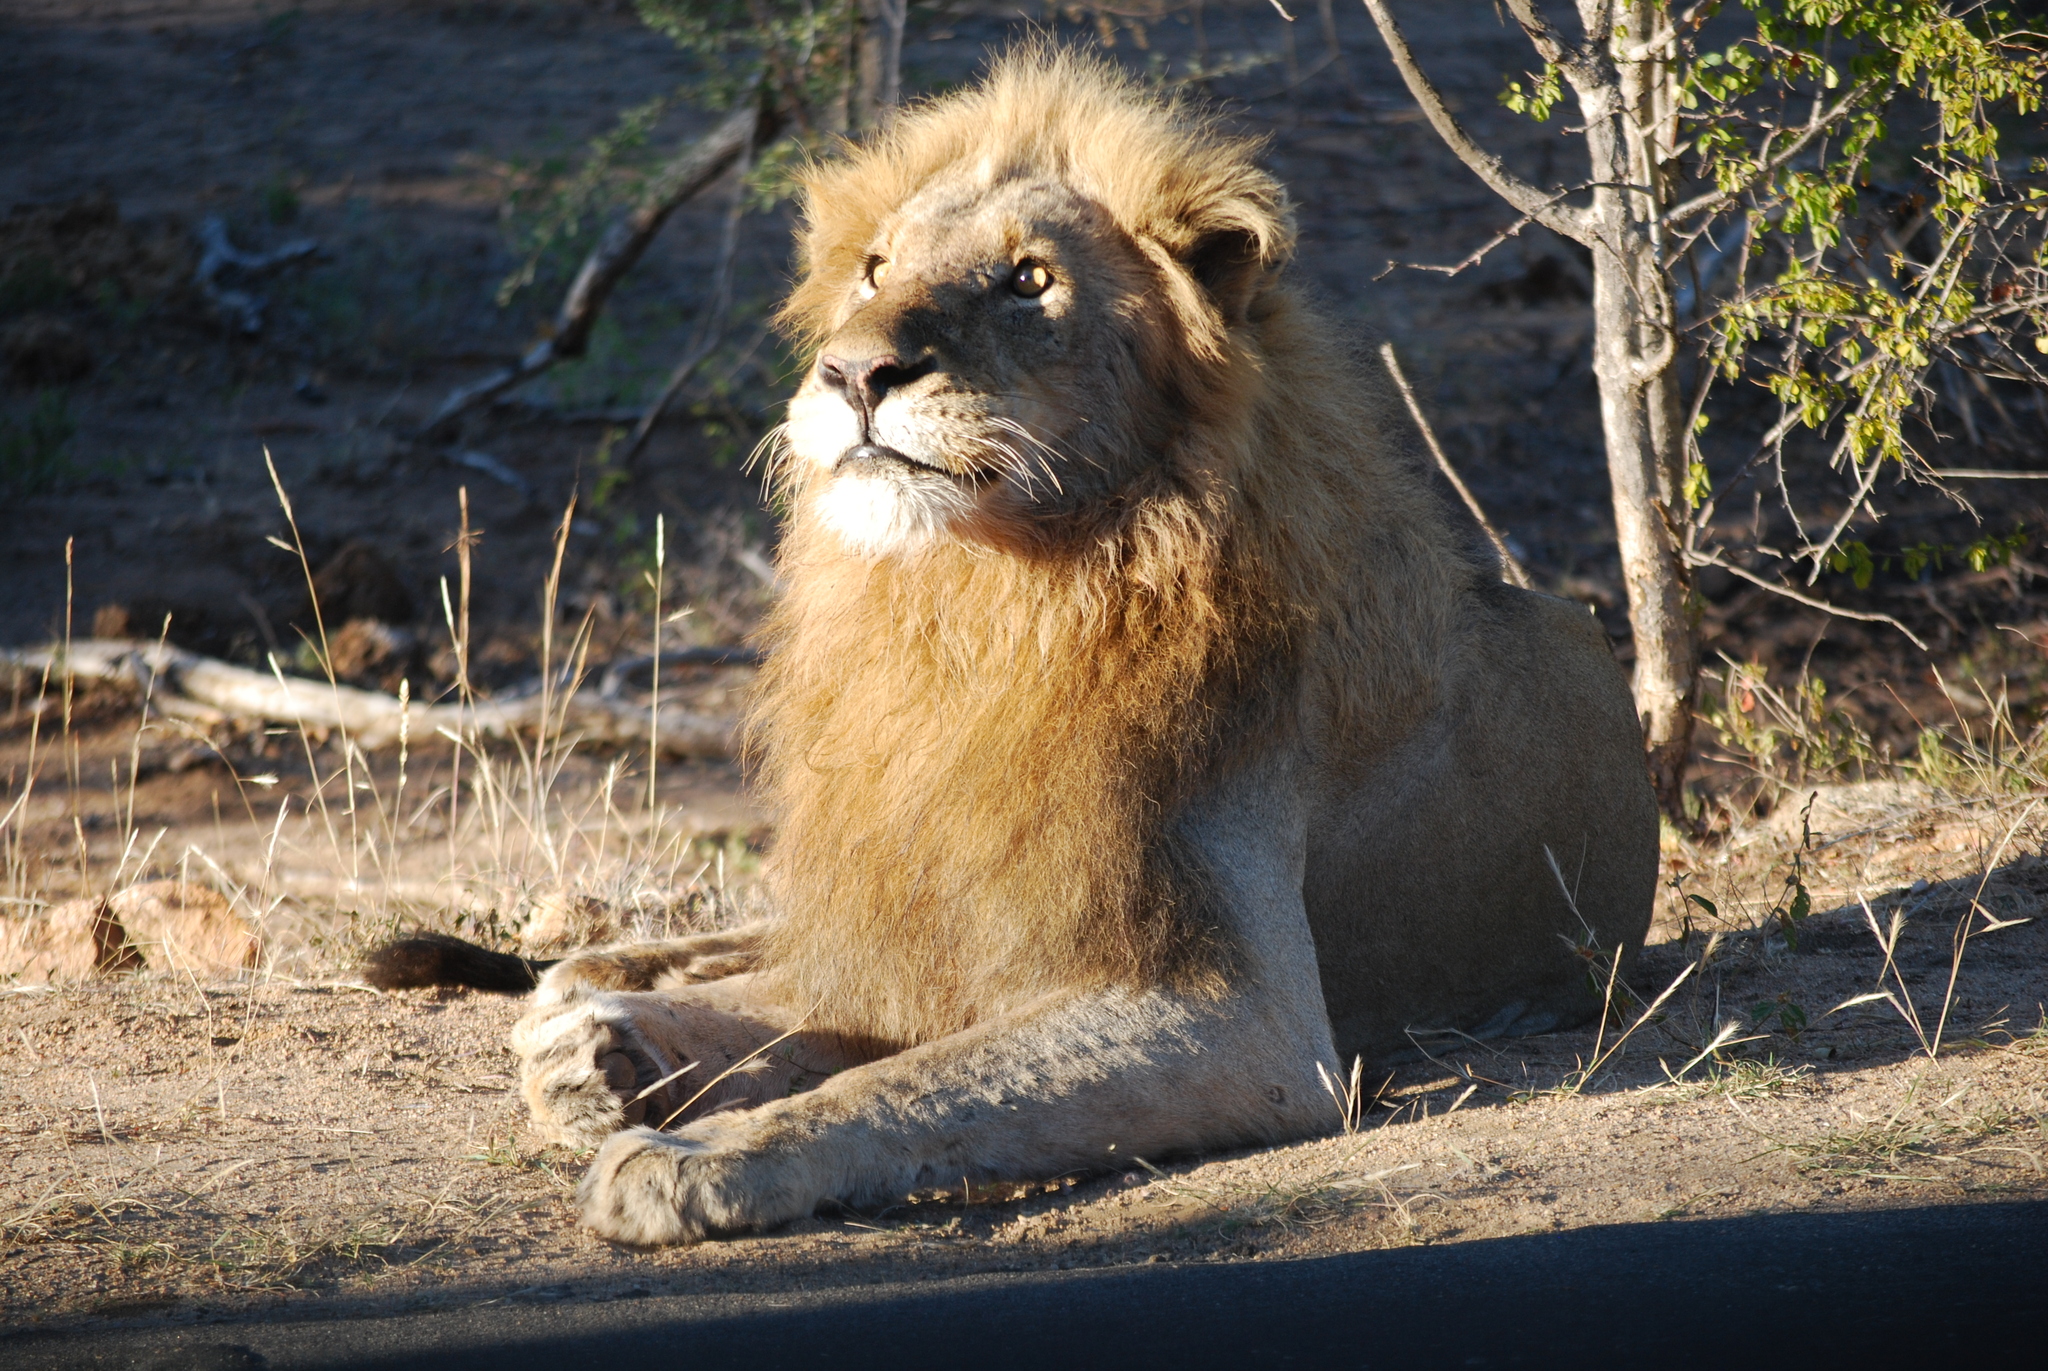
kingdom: Animalia
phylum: Chordata
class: Mammalia
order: Carnivora
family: Felidae
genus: Panthera
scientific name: Panthera leo
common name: Lion
